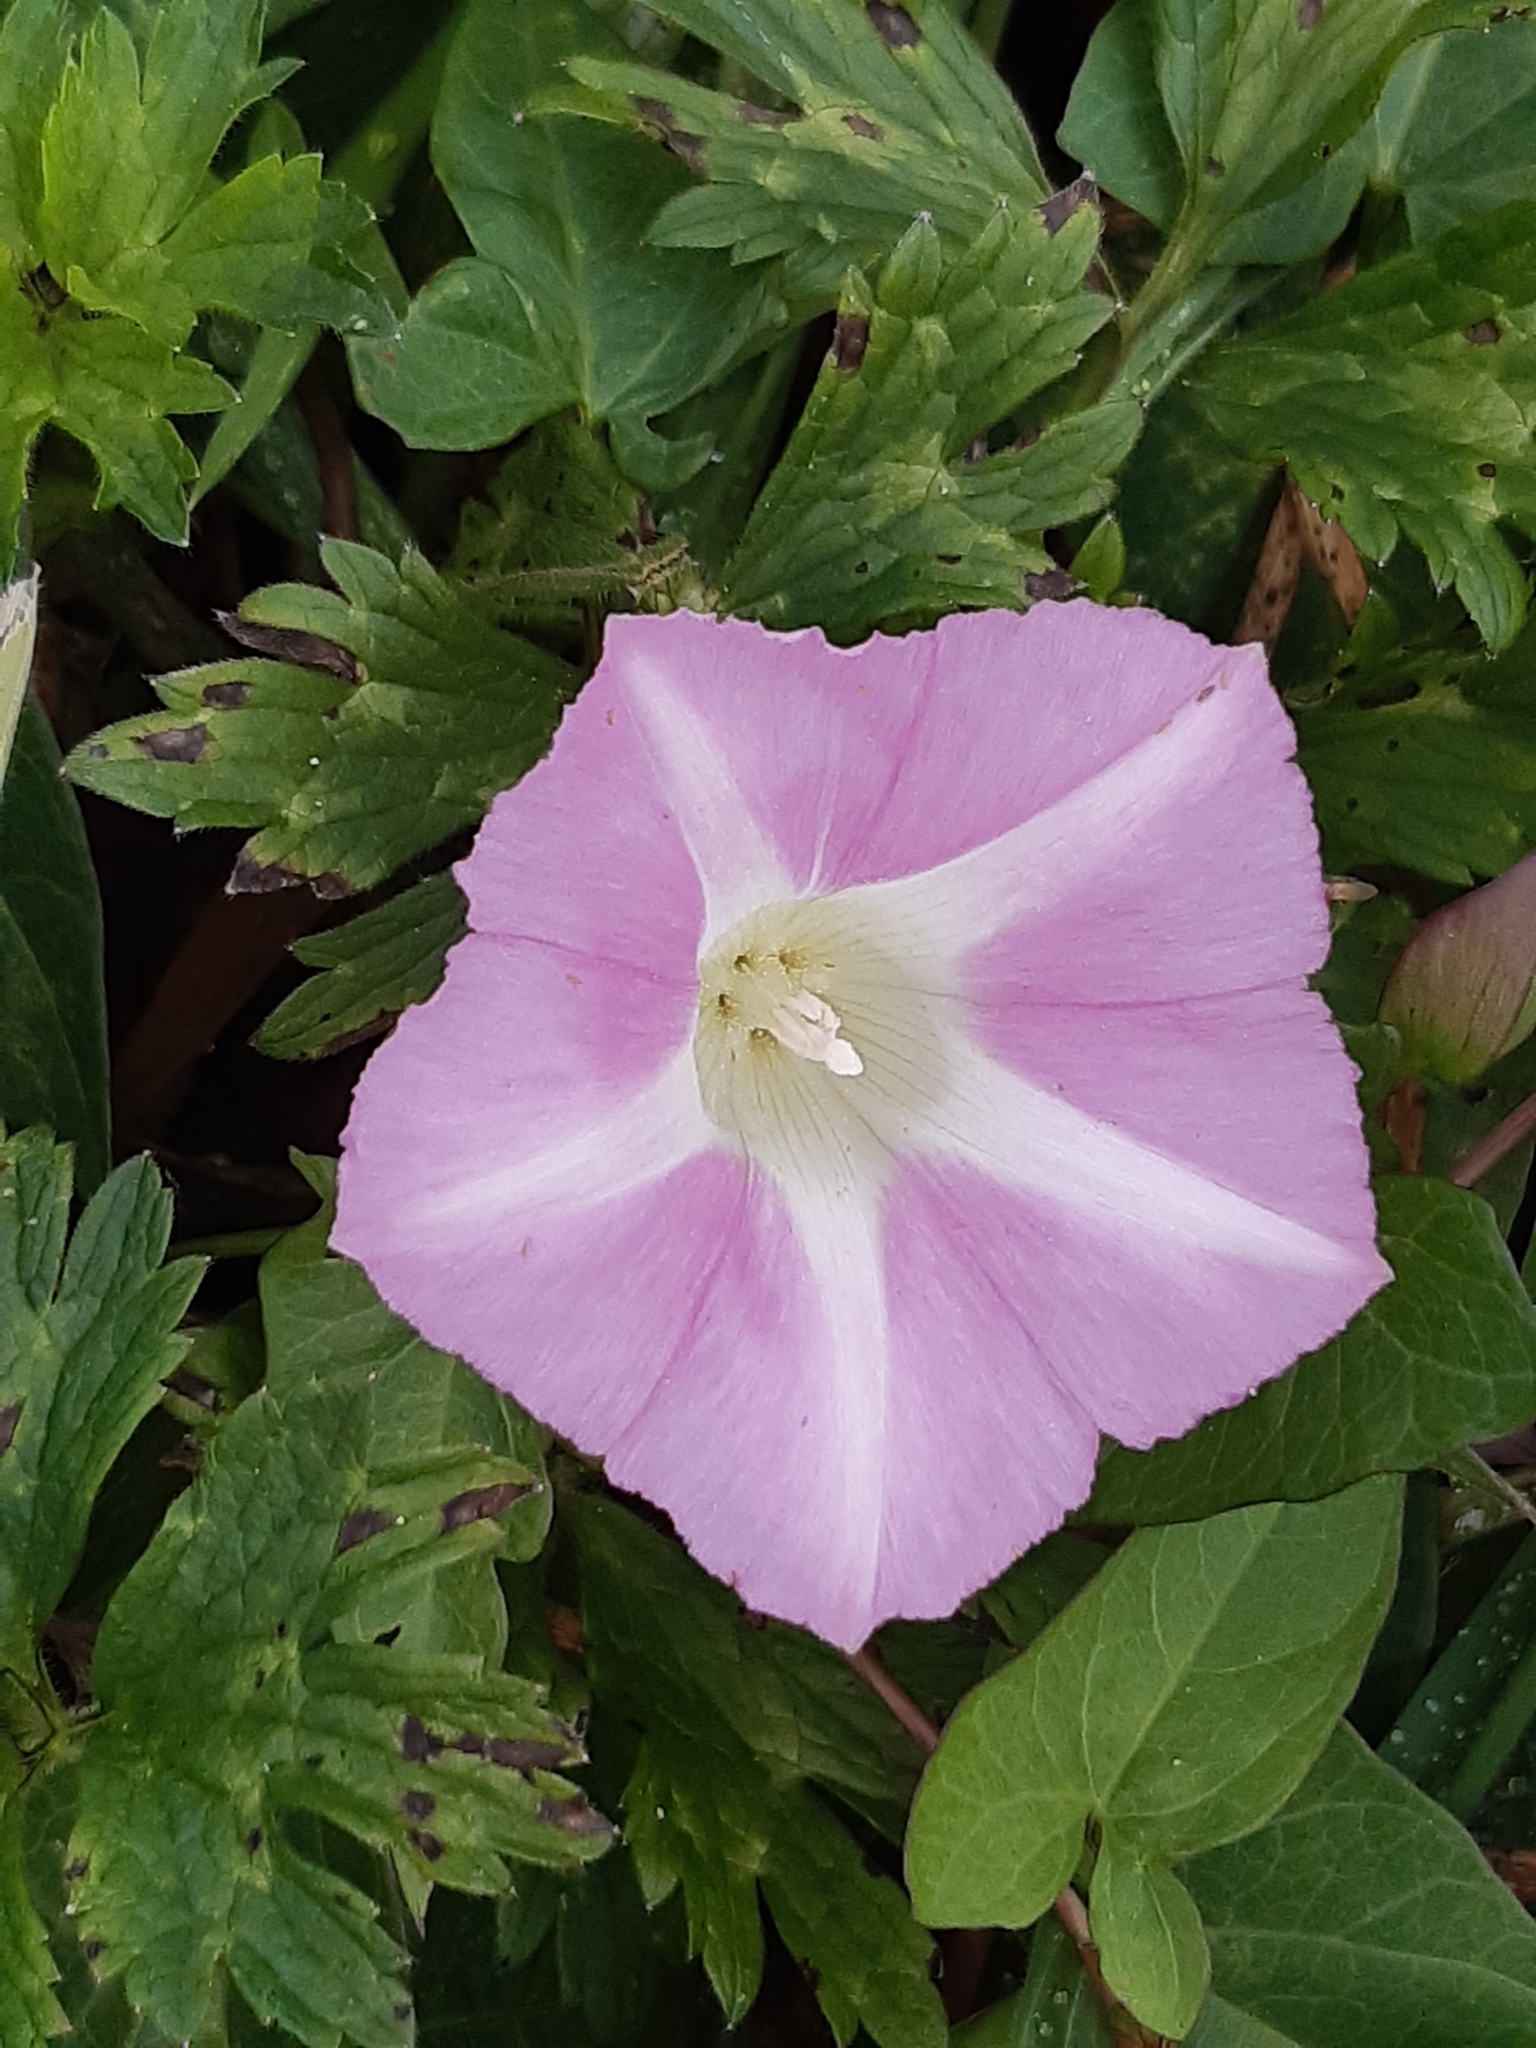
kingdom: Plantae
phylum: Tracheophyta
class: Magnoliopsida
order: Solanales
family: Convolvulaceae
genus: Calystegia
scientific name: Calystegia sepium
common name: Hedge bindweed
